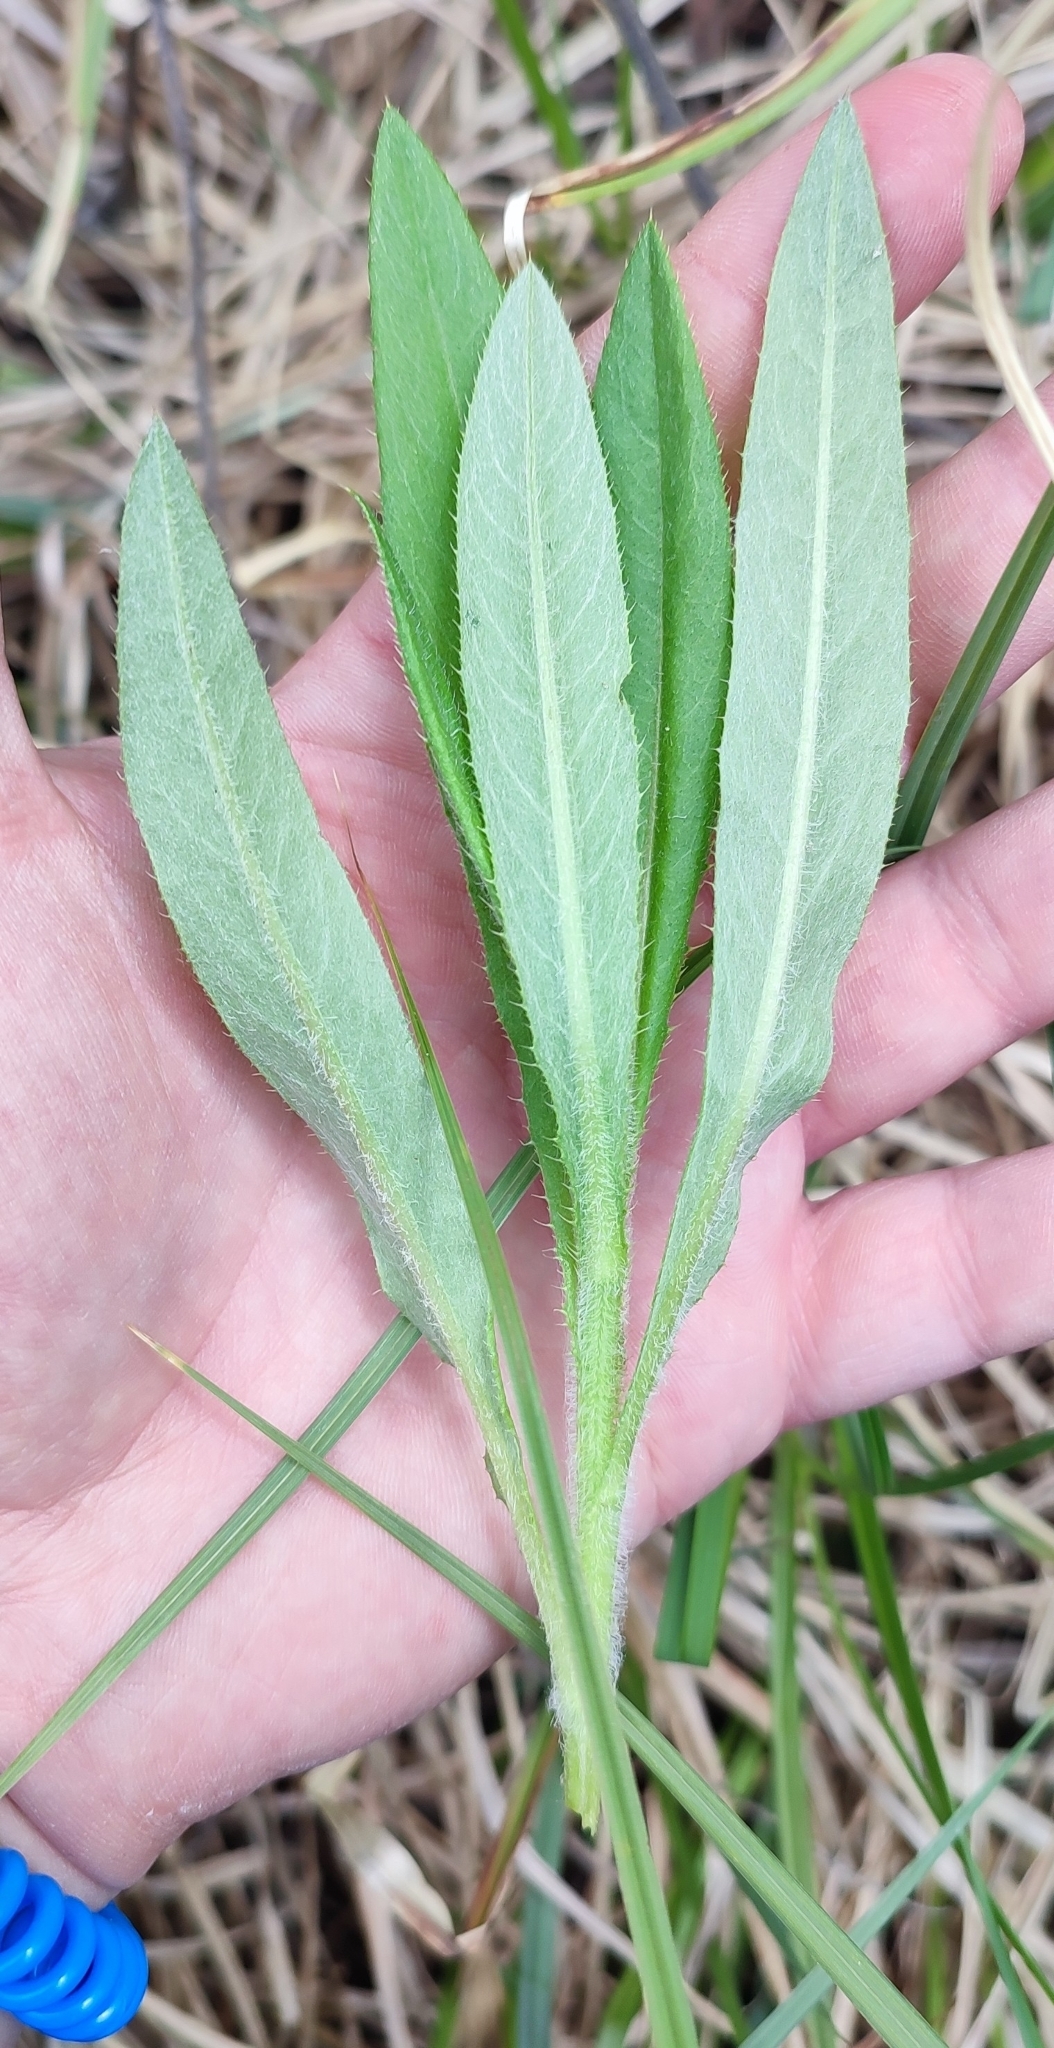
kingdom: Plantae
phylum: Tracheophyta
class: Magnoliopsida
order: Asterales
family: Asteraceae
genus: Cirsium
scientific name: Cirsium arvense
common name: Creeping thistle
